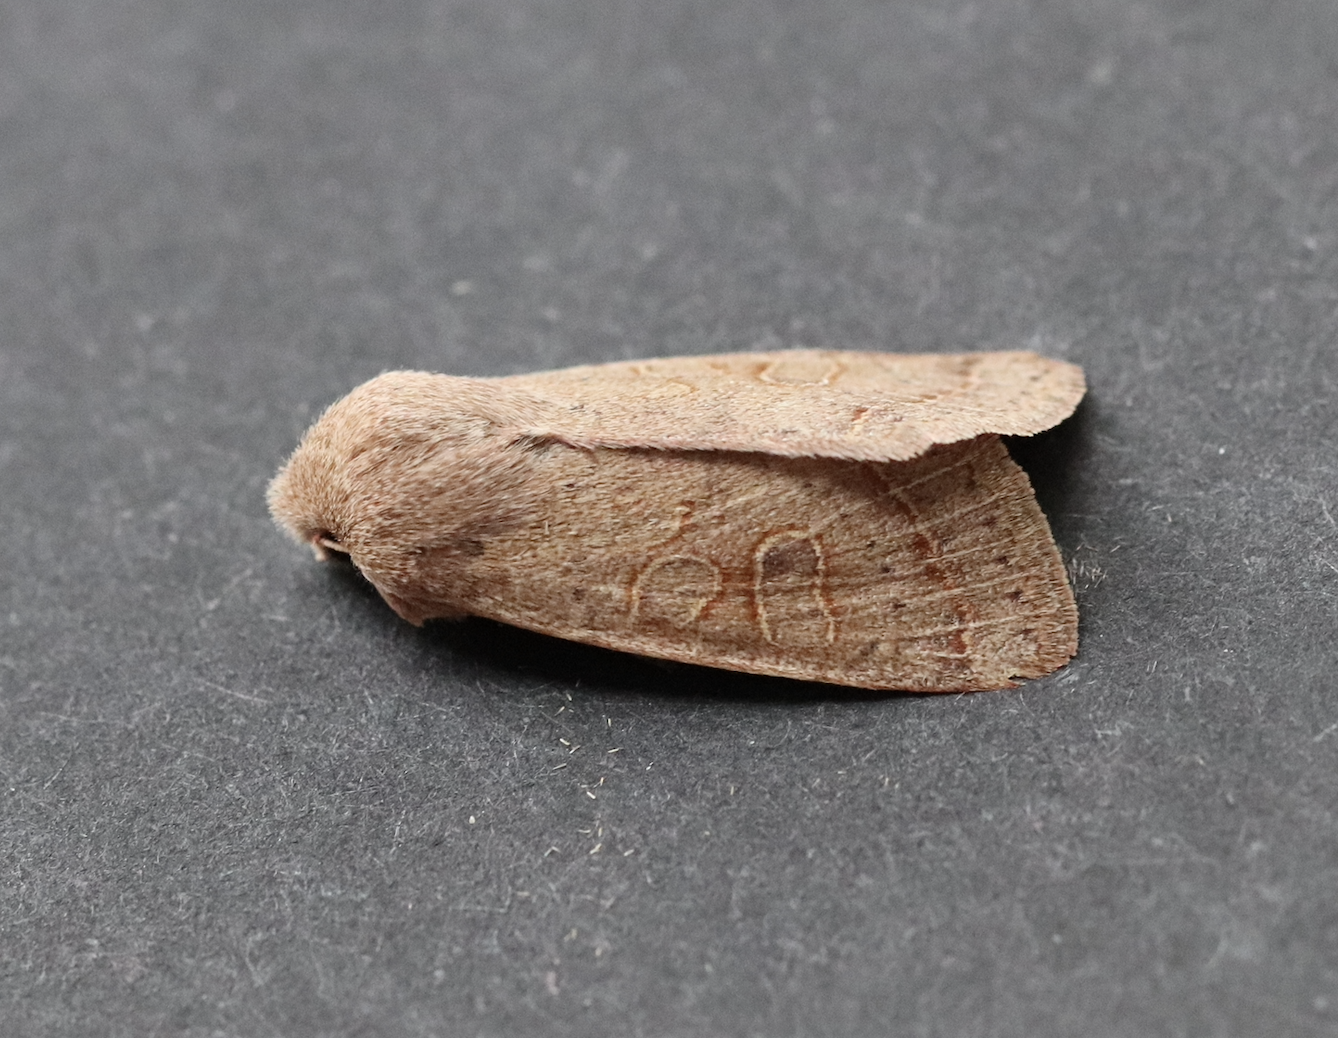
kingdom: Animalia
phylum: Arthropoda
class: Insecta
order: Lepidoptera
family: Noctuidae
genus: Orthosia
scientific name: Orthosia cerasi
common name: Common quaker
